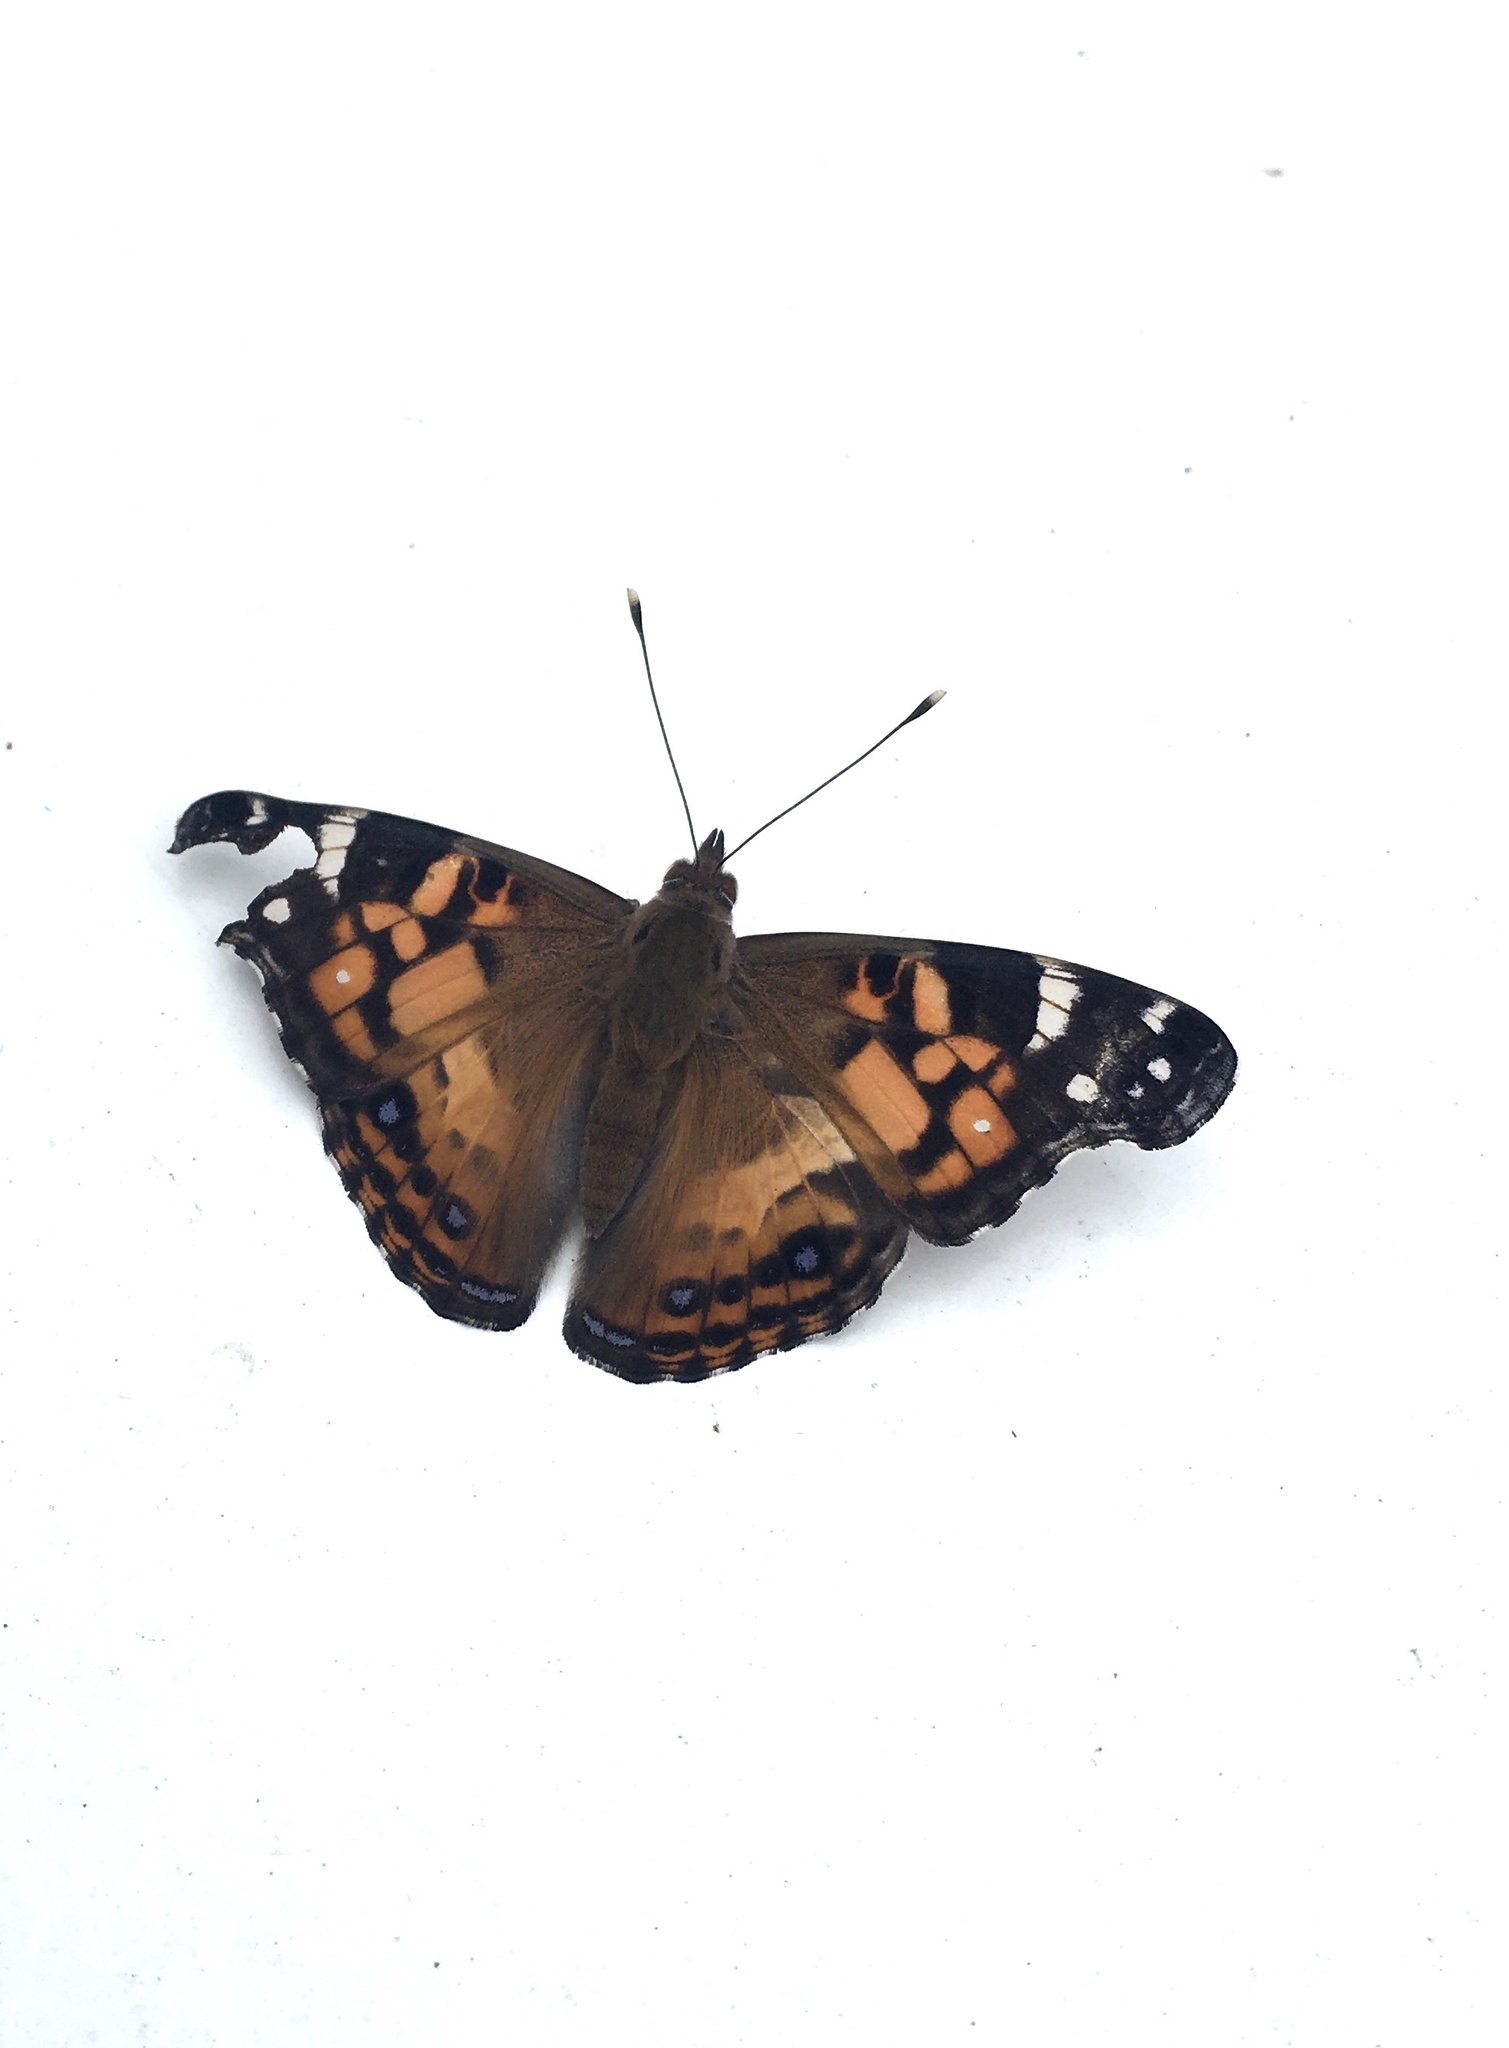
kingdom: Animalia
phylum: Arthropoda
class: Insecta
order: Lepidoptera
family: Nymphalidae
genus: Vanessa
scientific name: Vanessa virginiensis
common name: American lady
